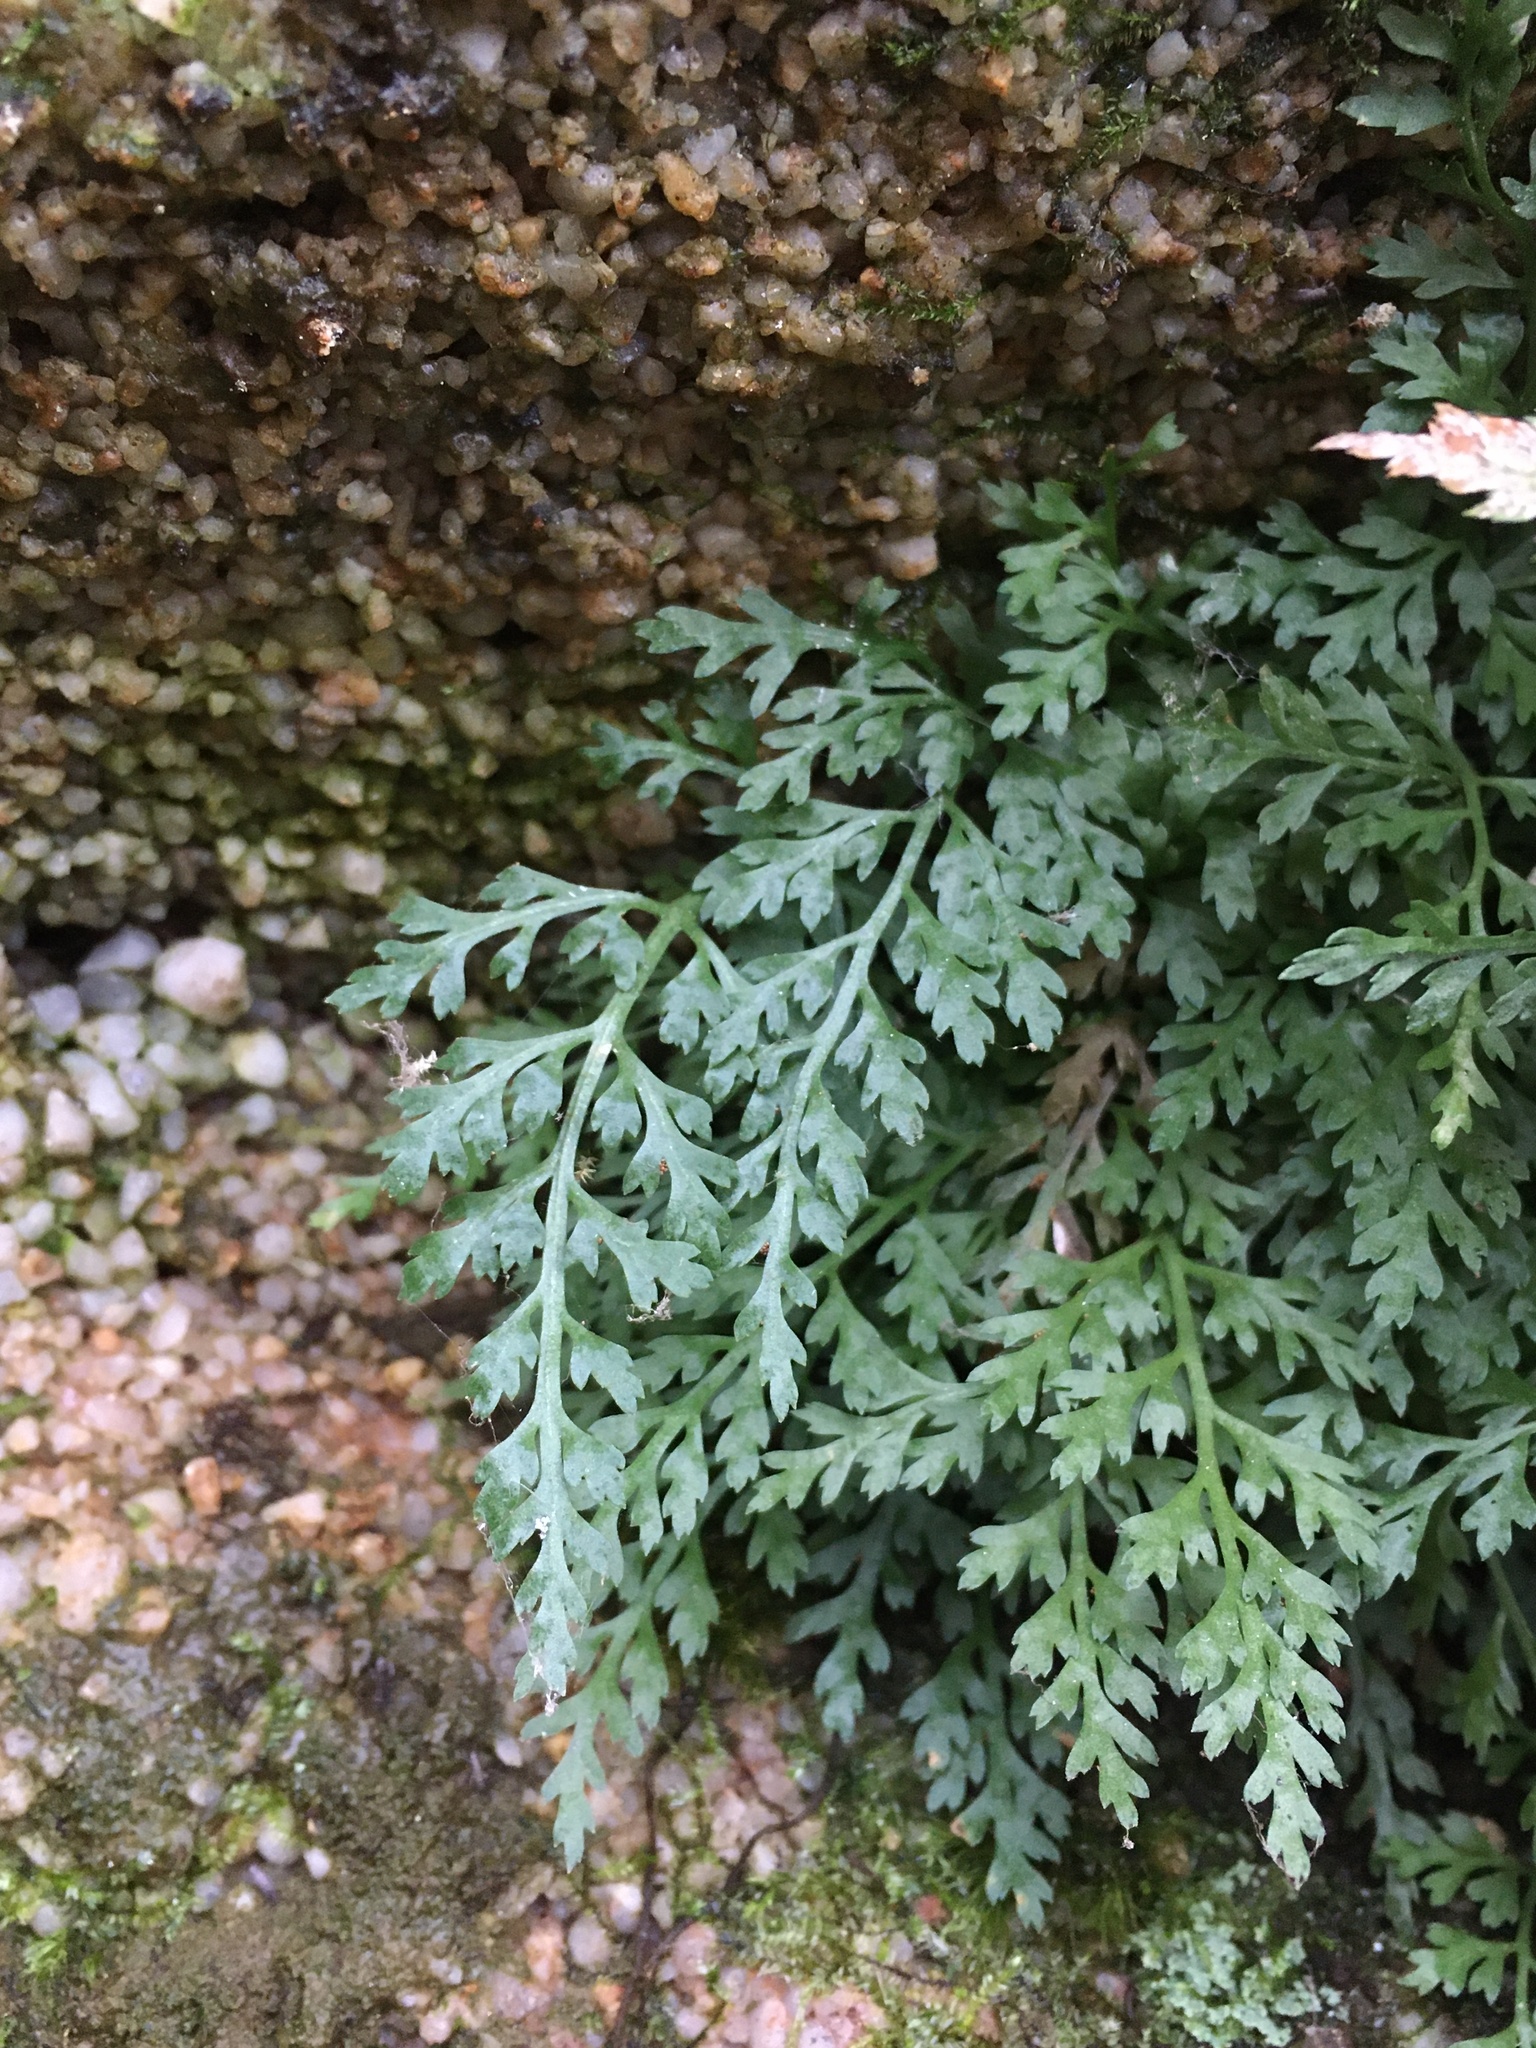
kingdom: Plantae
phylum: Tracheophyta
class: Polypodiopsida
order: Polypodiales
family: Aspleniaceae
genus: Asplenium
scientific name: Asplenium montanum
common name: Mountain spleenwort
